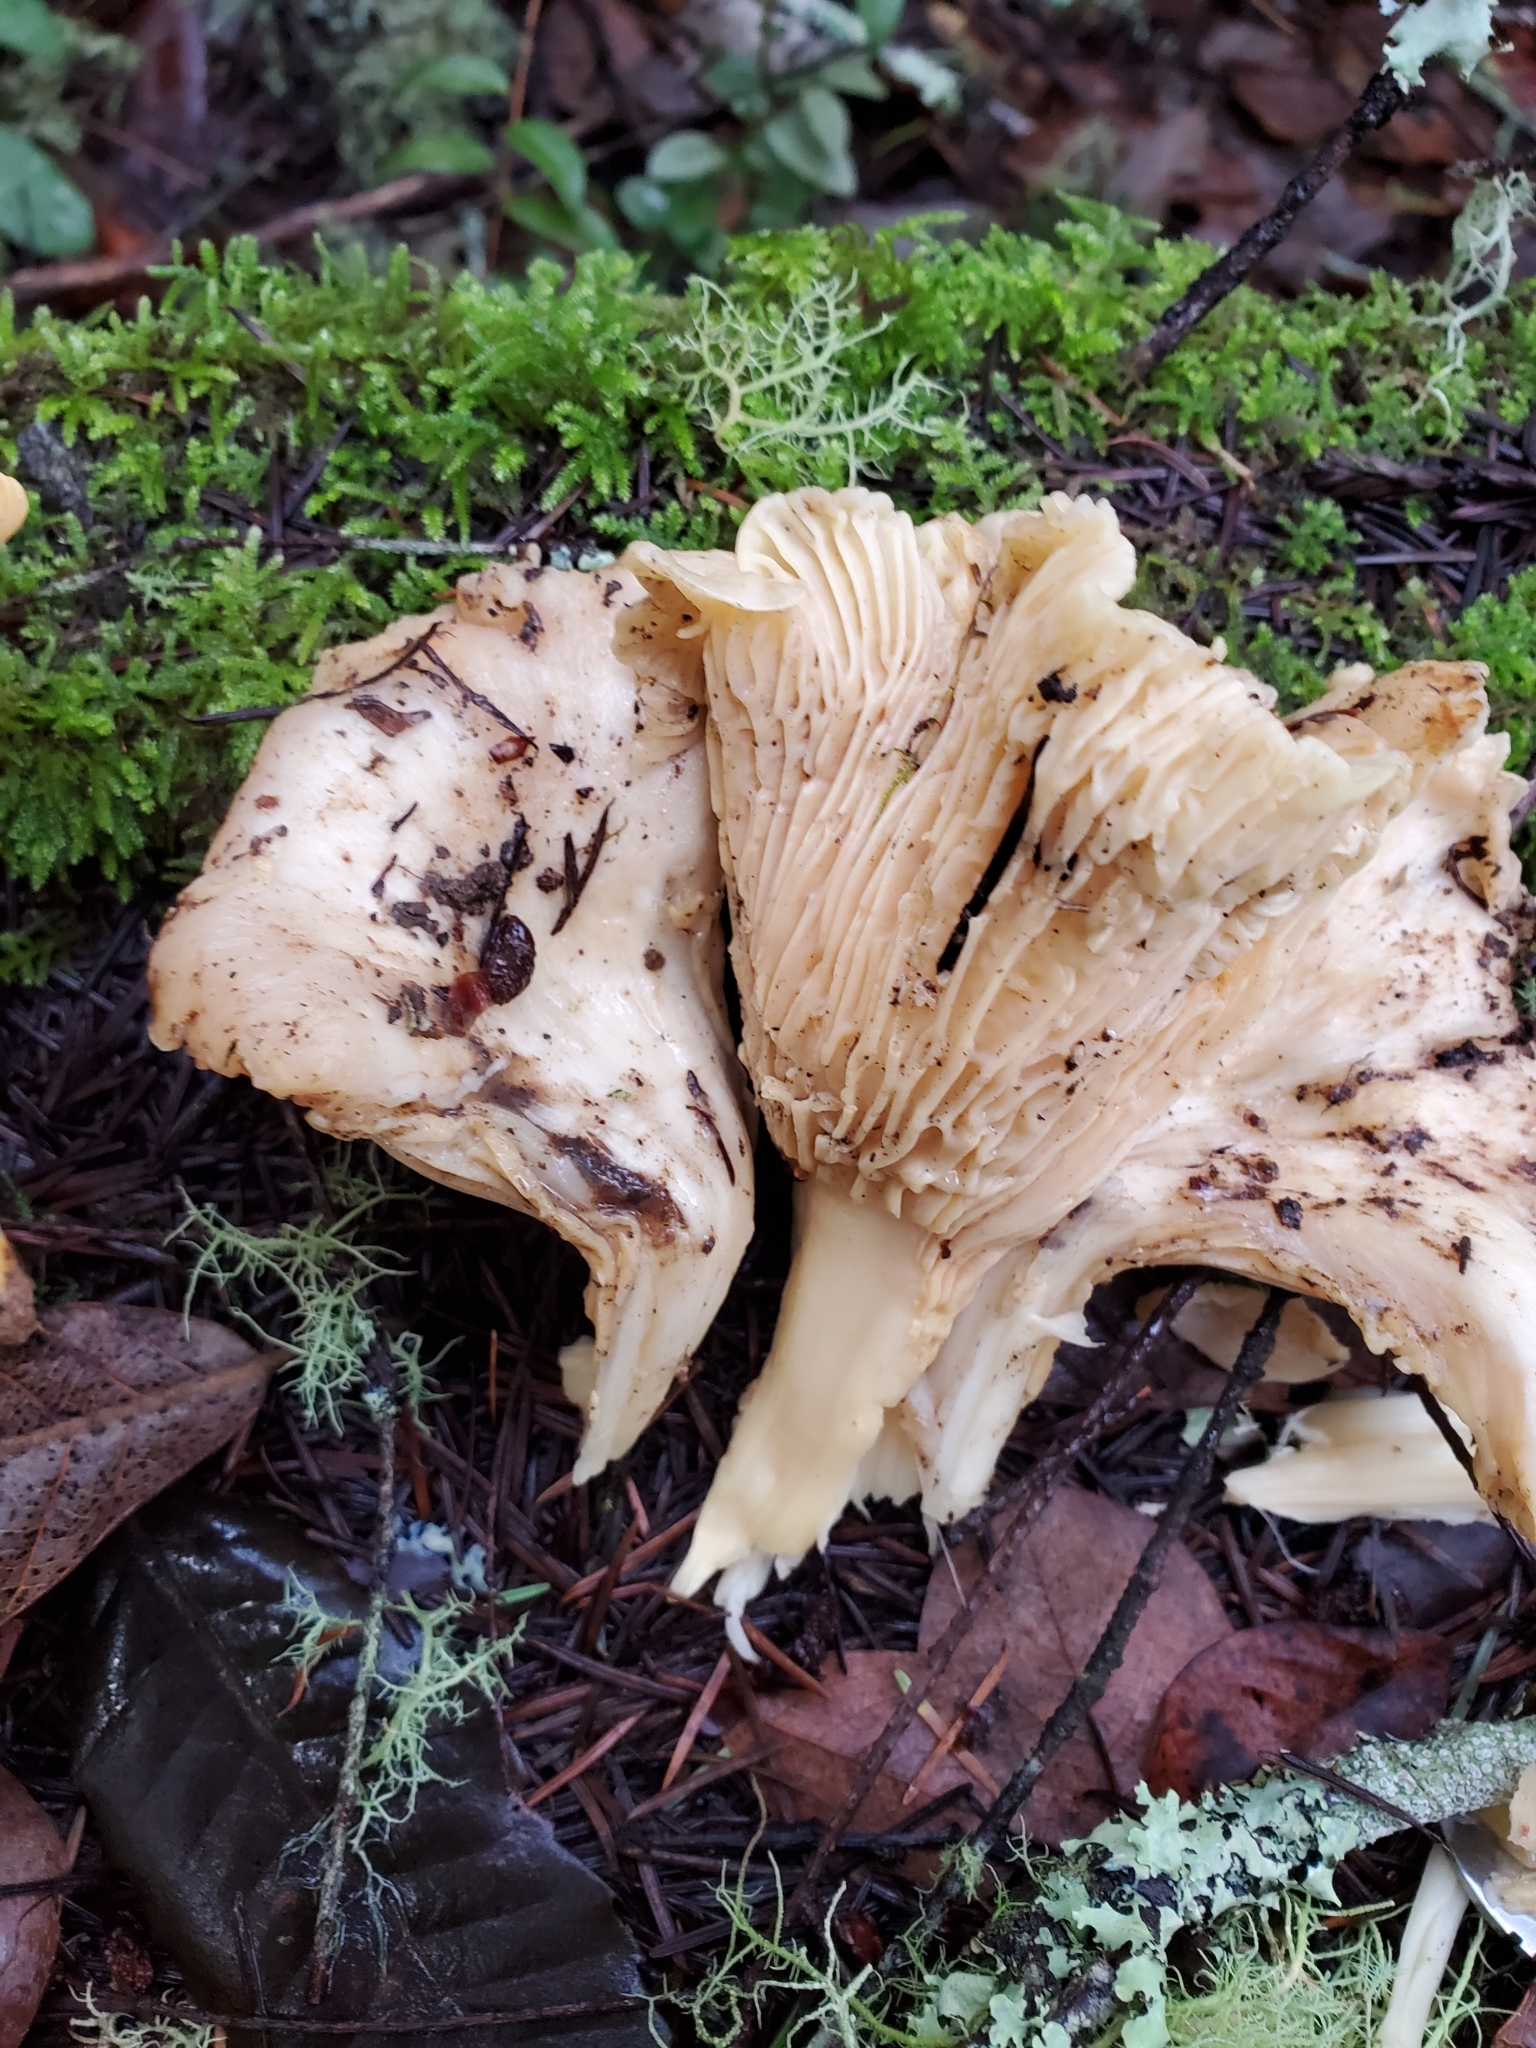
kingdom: Fungi
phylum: Basidiomycota
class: Agaricomycetes
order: Cantharellales
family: Hydnaceae
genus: Cantharellus
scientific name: Cantharellus subalbidus
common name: White chanterelle
